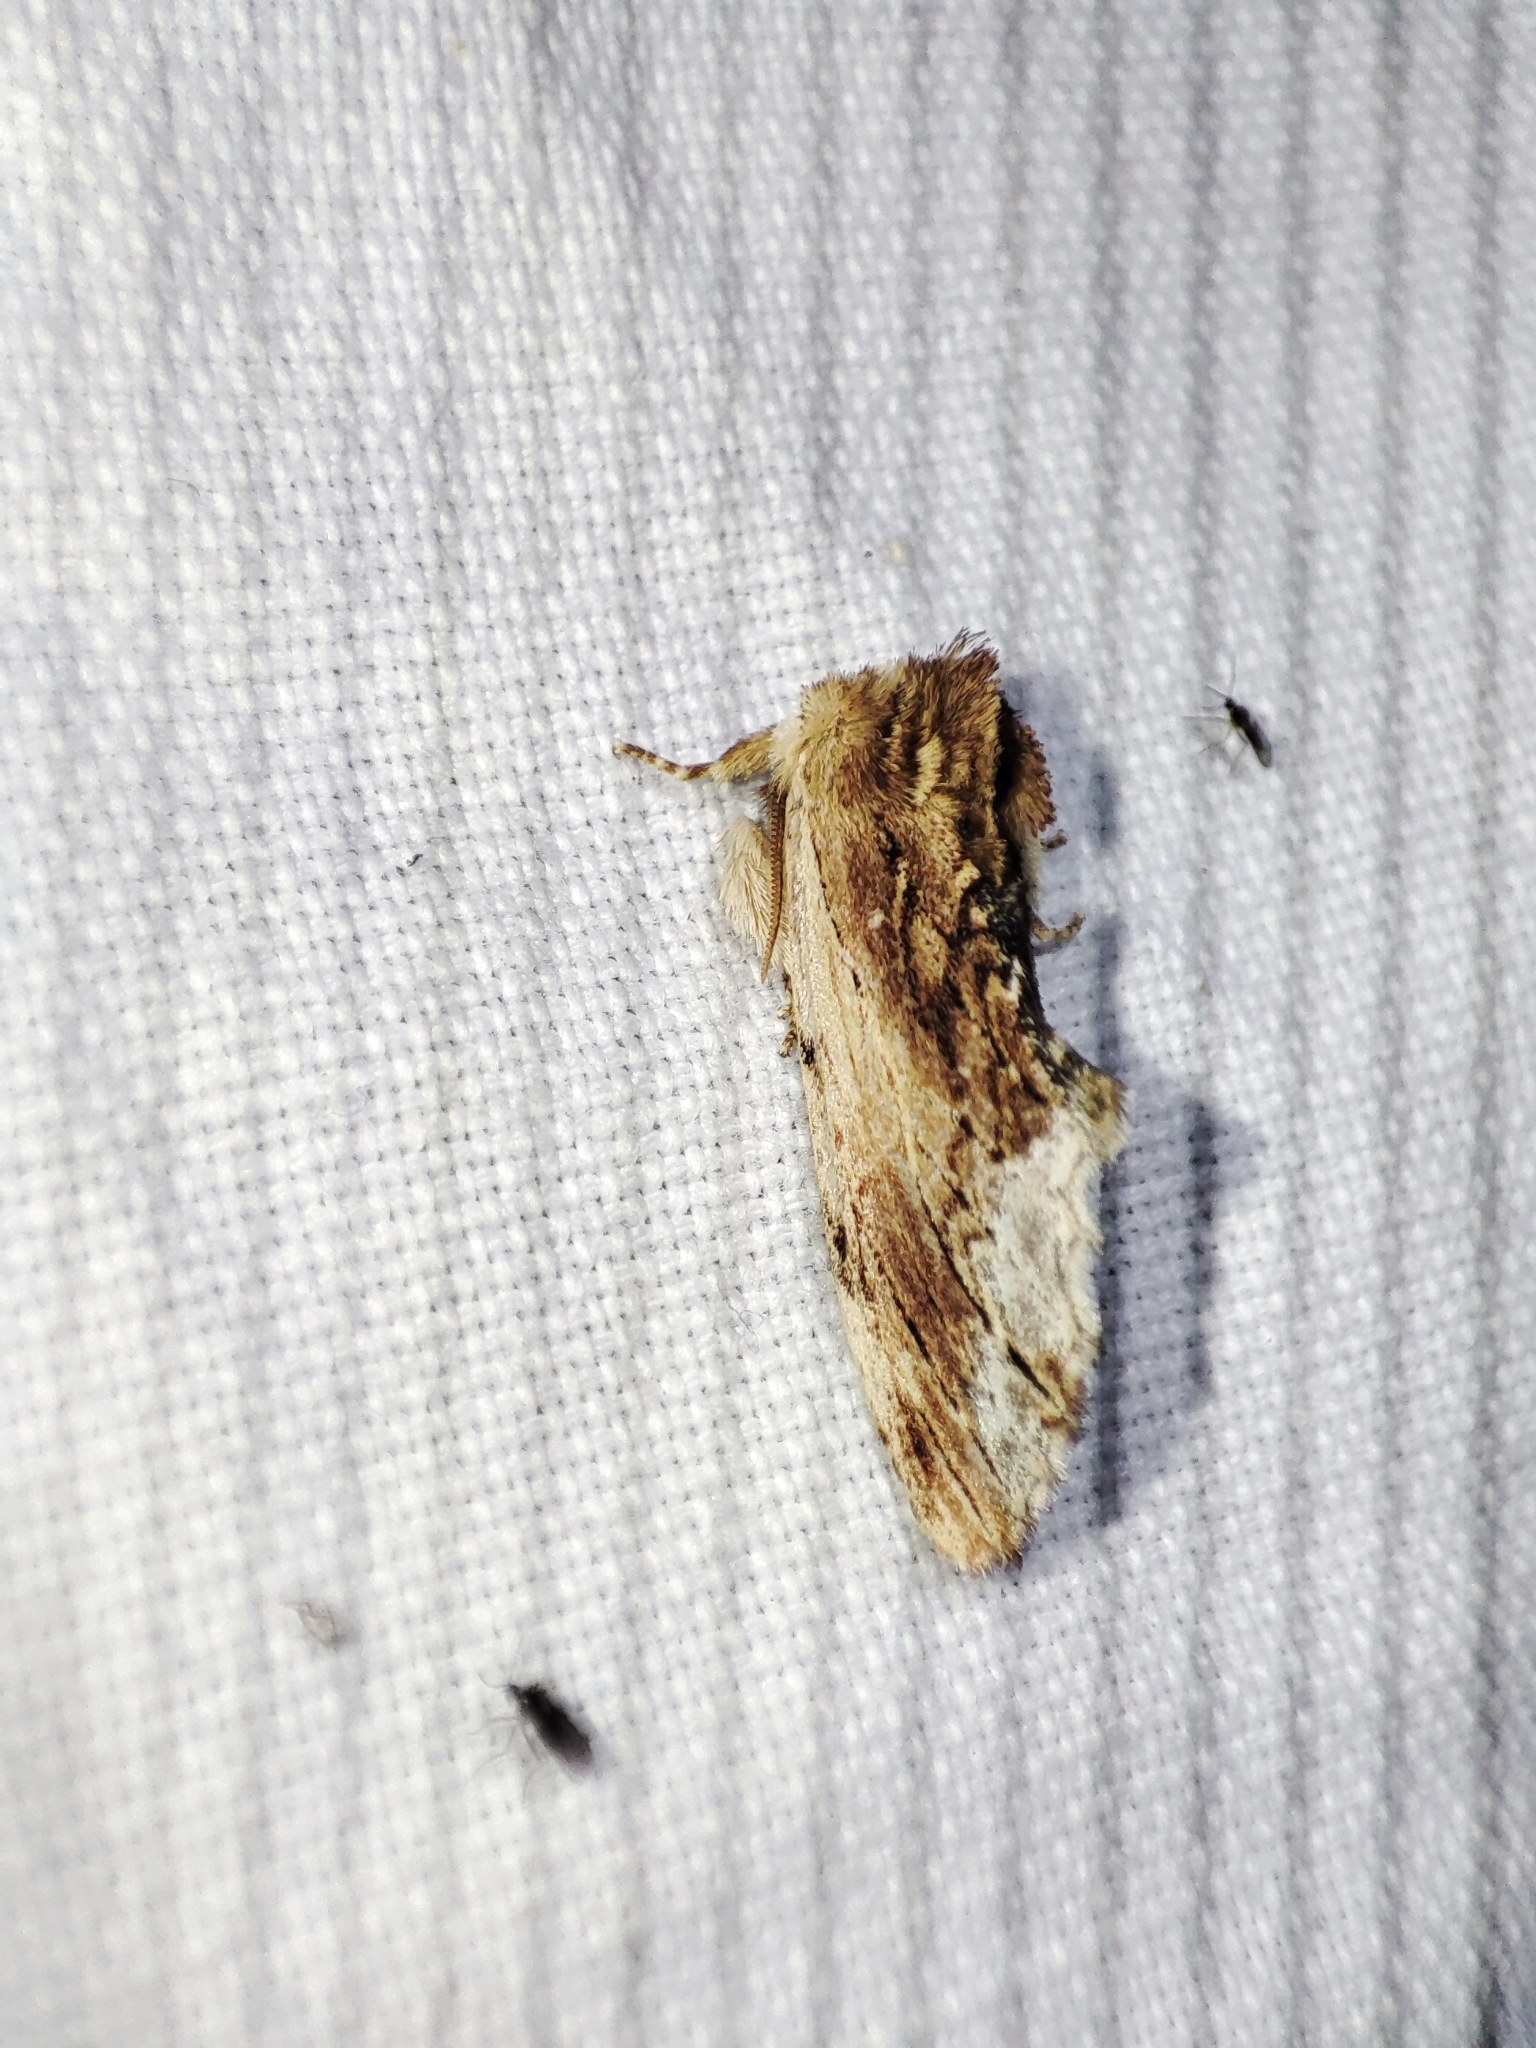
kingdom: Animalia
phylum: Arthropoda
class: Insecta
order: Lepidoptera
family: Notodontidae
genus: Ptilodon
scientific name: Ptilodon cucullina
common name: Maple prominent
